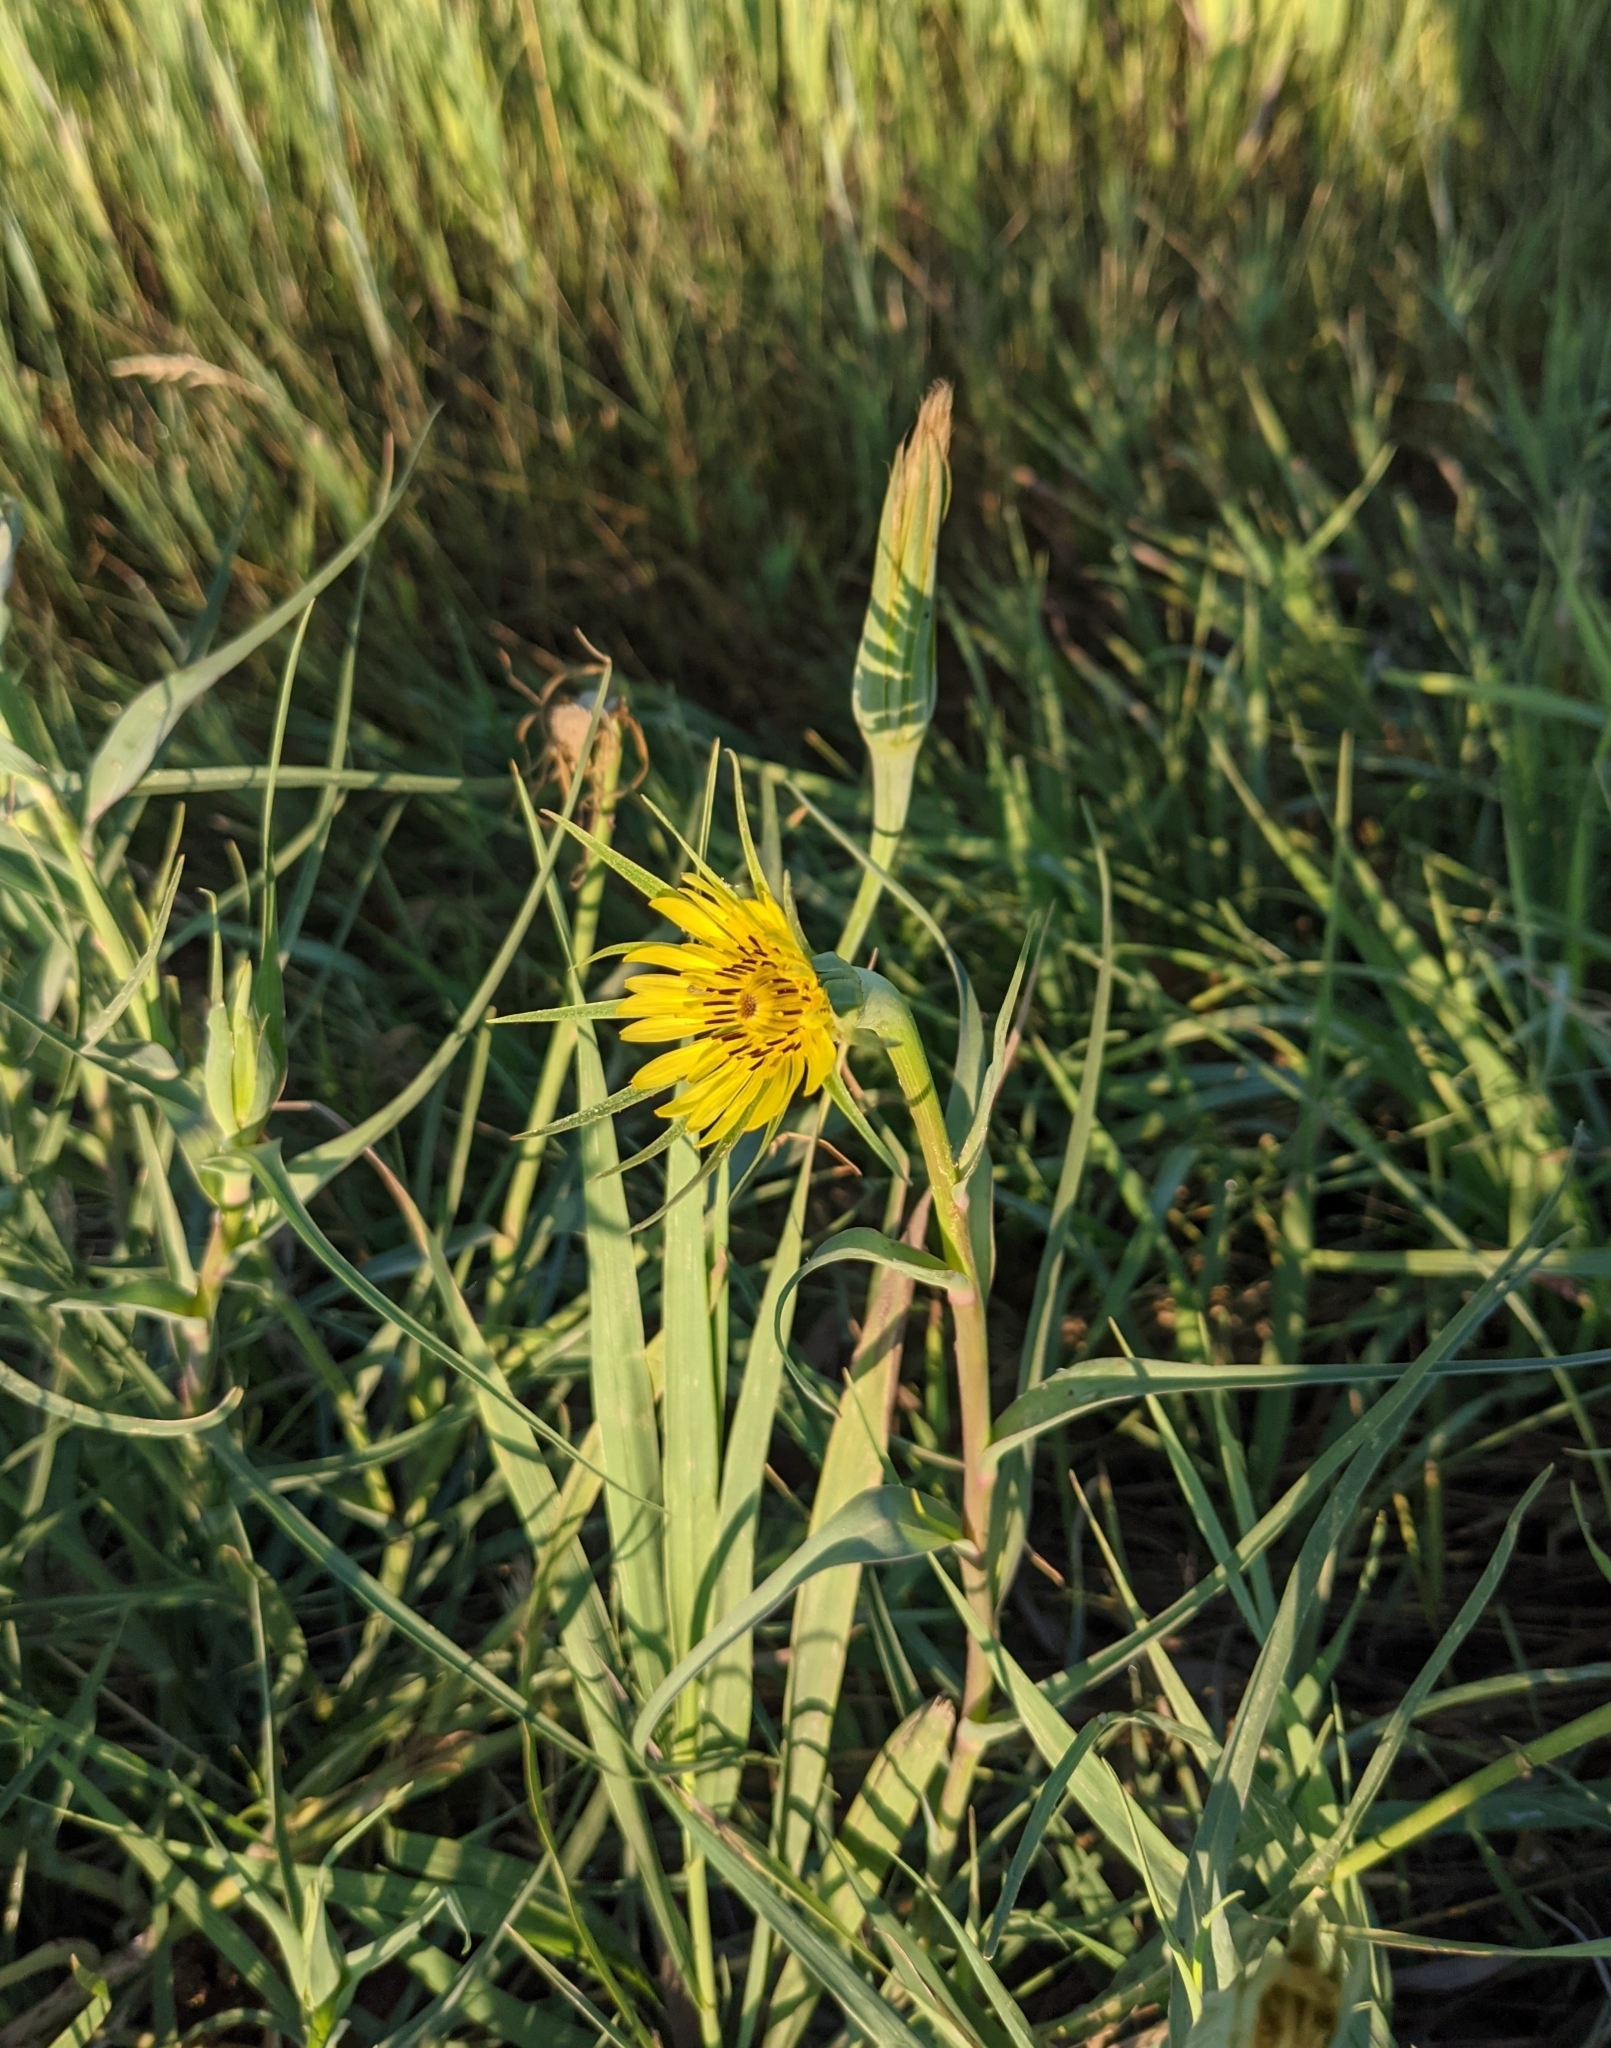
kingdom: Plantae
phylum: Tracheophyta
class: Magnoliopsida
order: Asterales
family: Asteraceae
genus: Tragopogon
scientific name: Tragopogon dubius
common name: Yellow salsify
